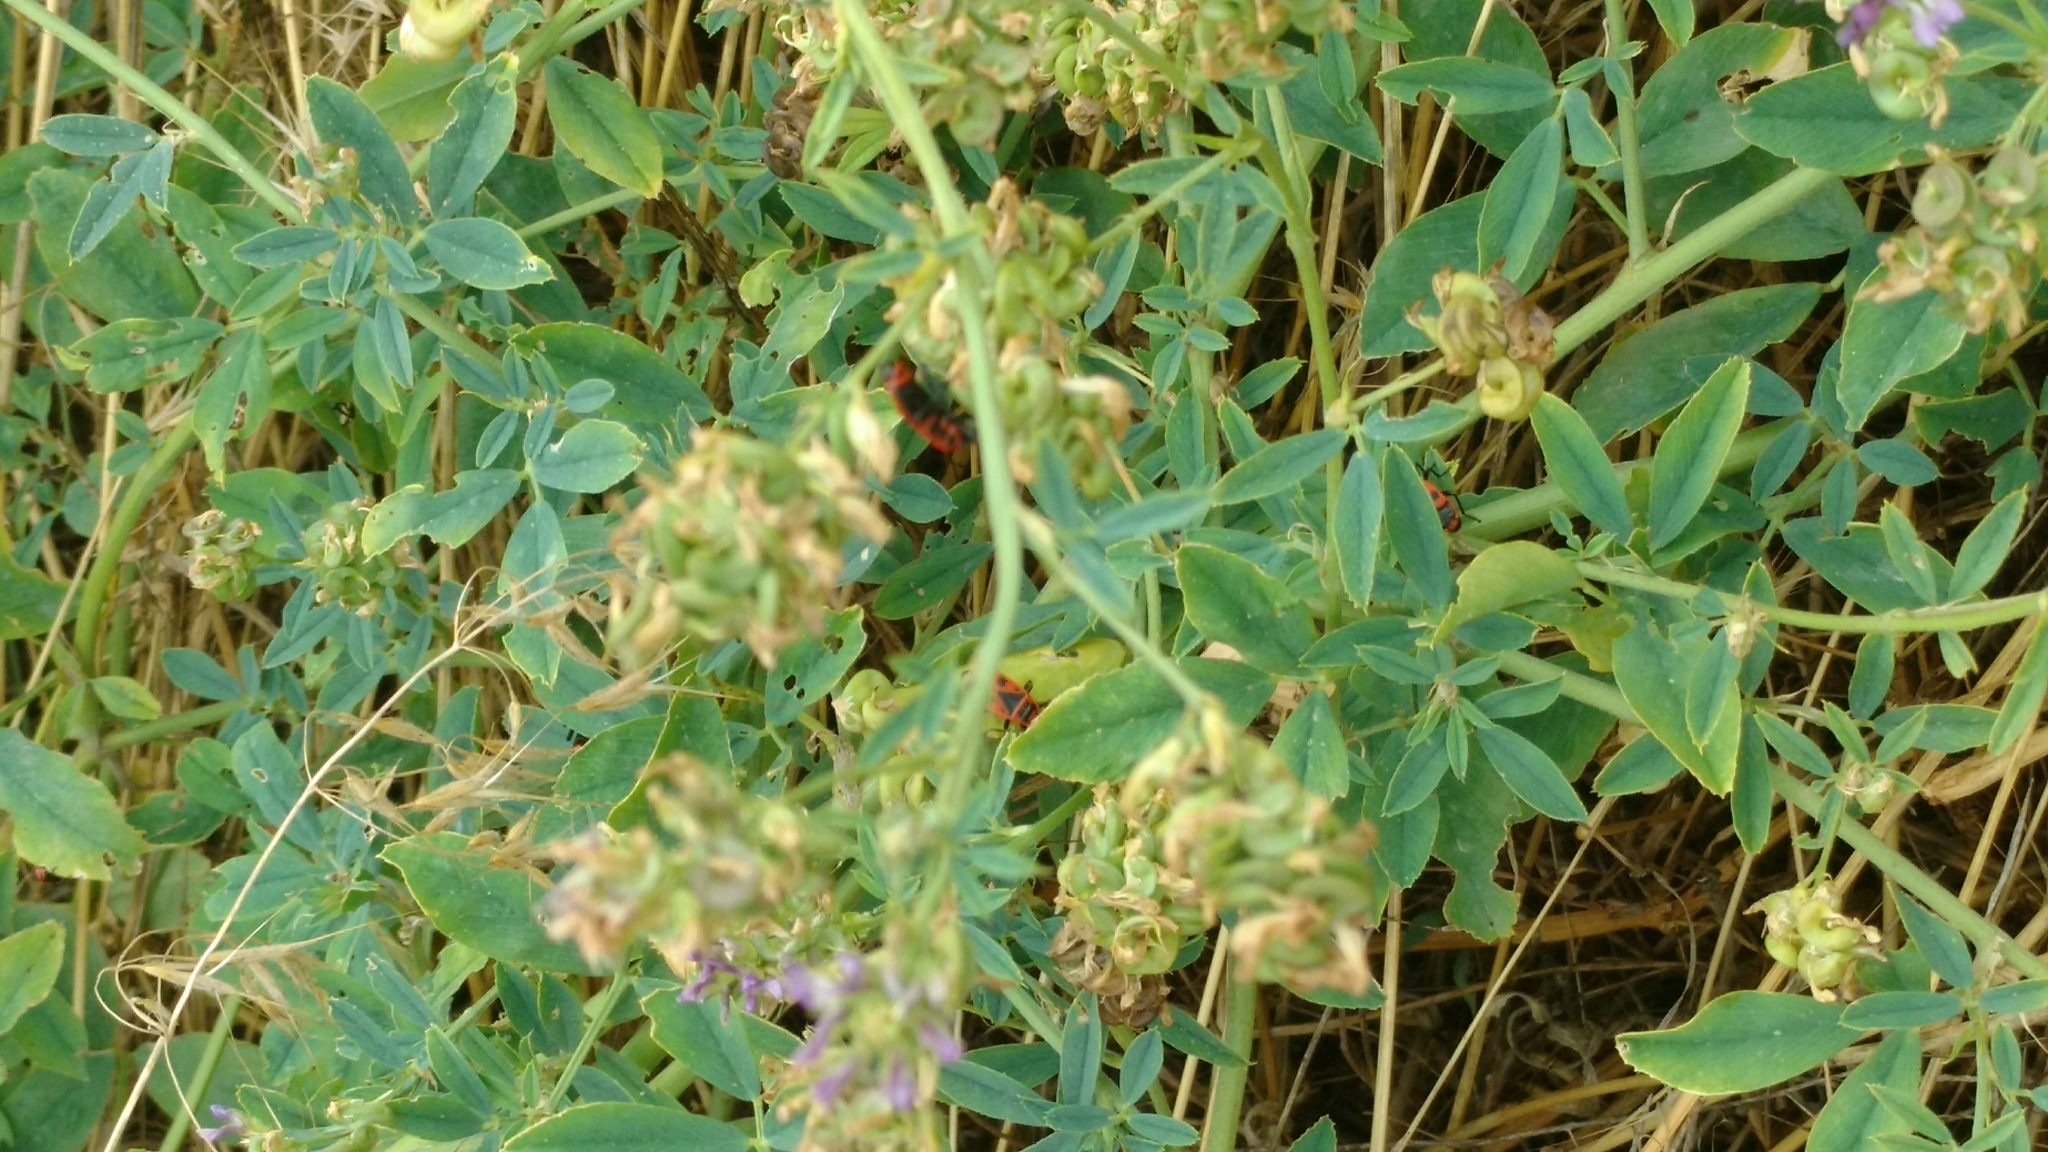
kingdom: Plantae
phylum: Tracheophyta
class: Magnoliopsida
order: Fabales
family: Fabaceae
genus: Medicago
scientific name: Medicago sativa
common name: Alfalfa
